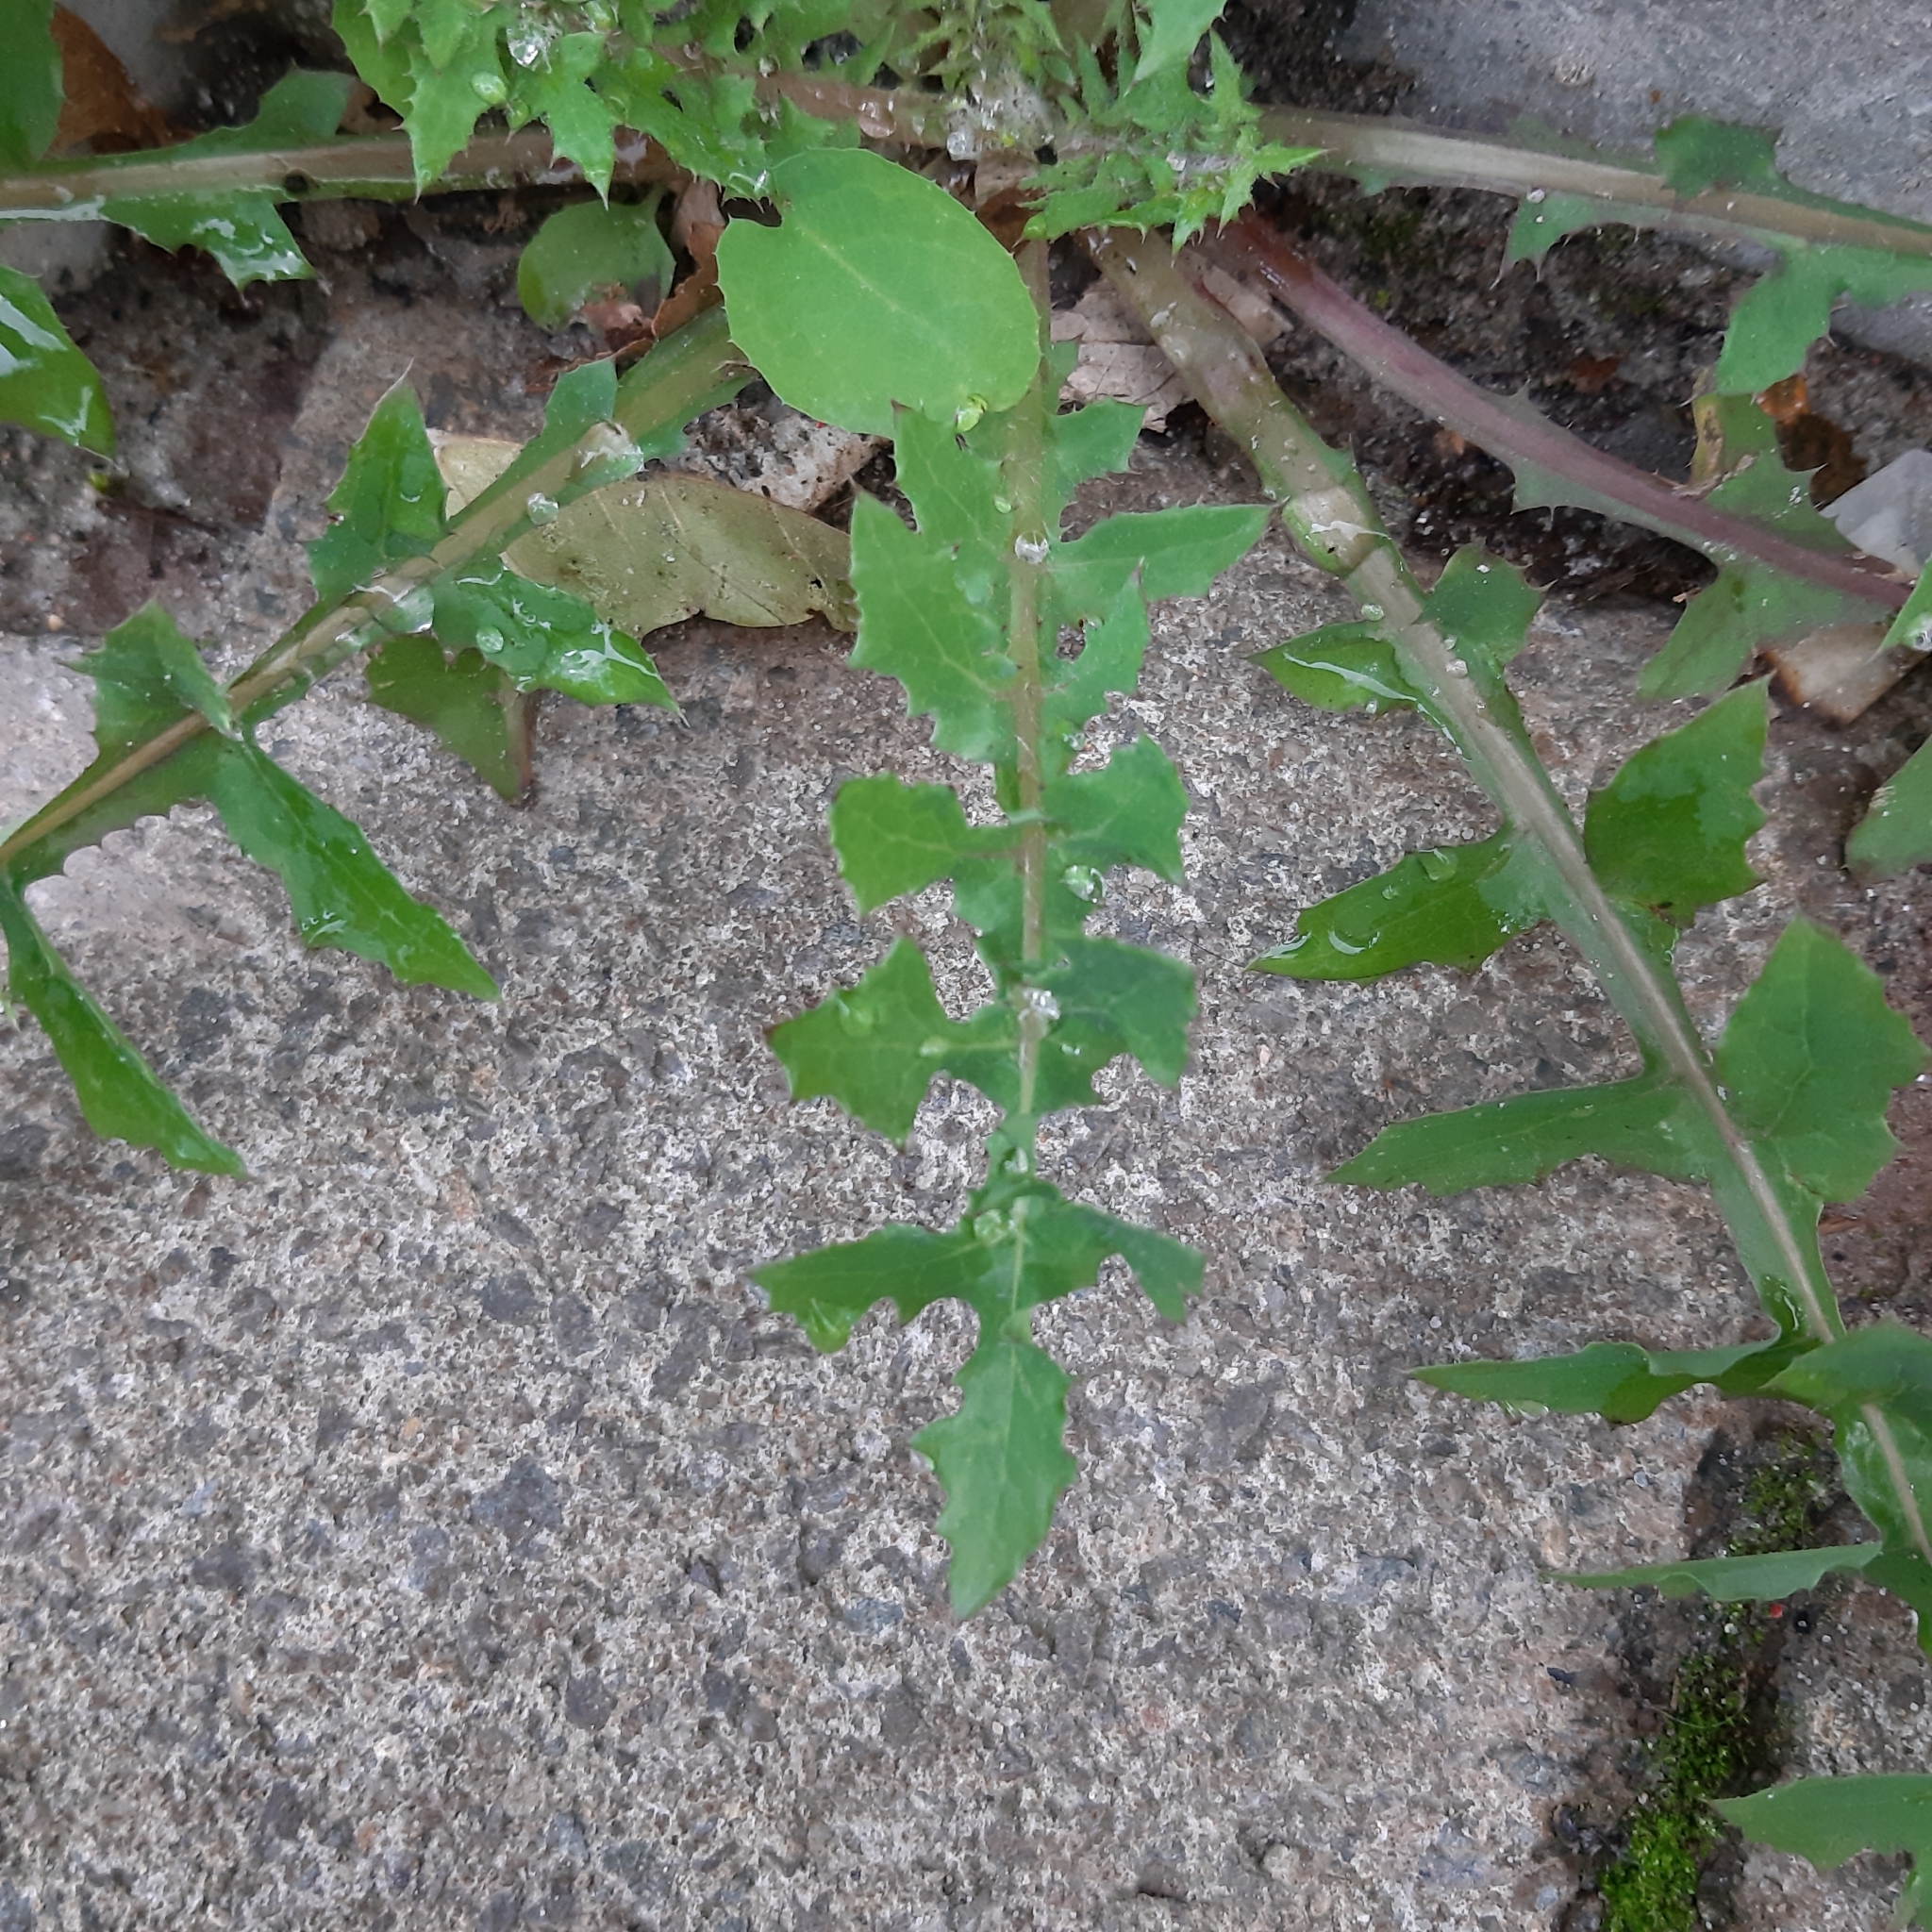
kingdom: Plantae
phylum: Tracheophyta
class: Magnoliopsida
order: Asterales
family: Asteraceae
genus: Sonchus
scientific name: Sonchus oleraceus
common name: Common sowthistle
